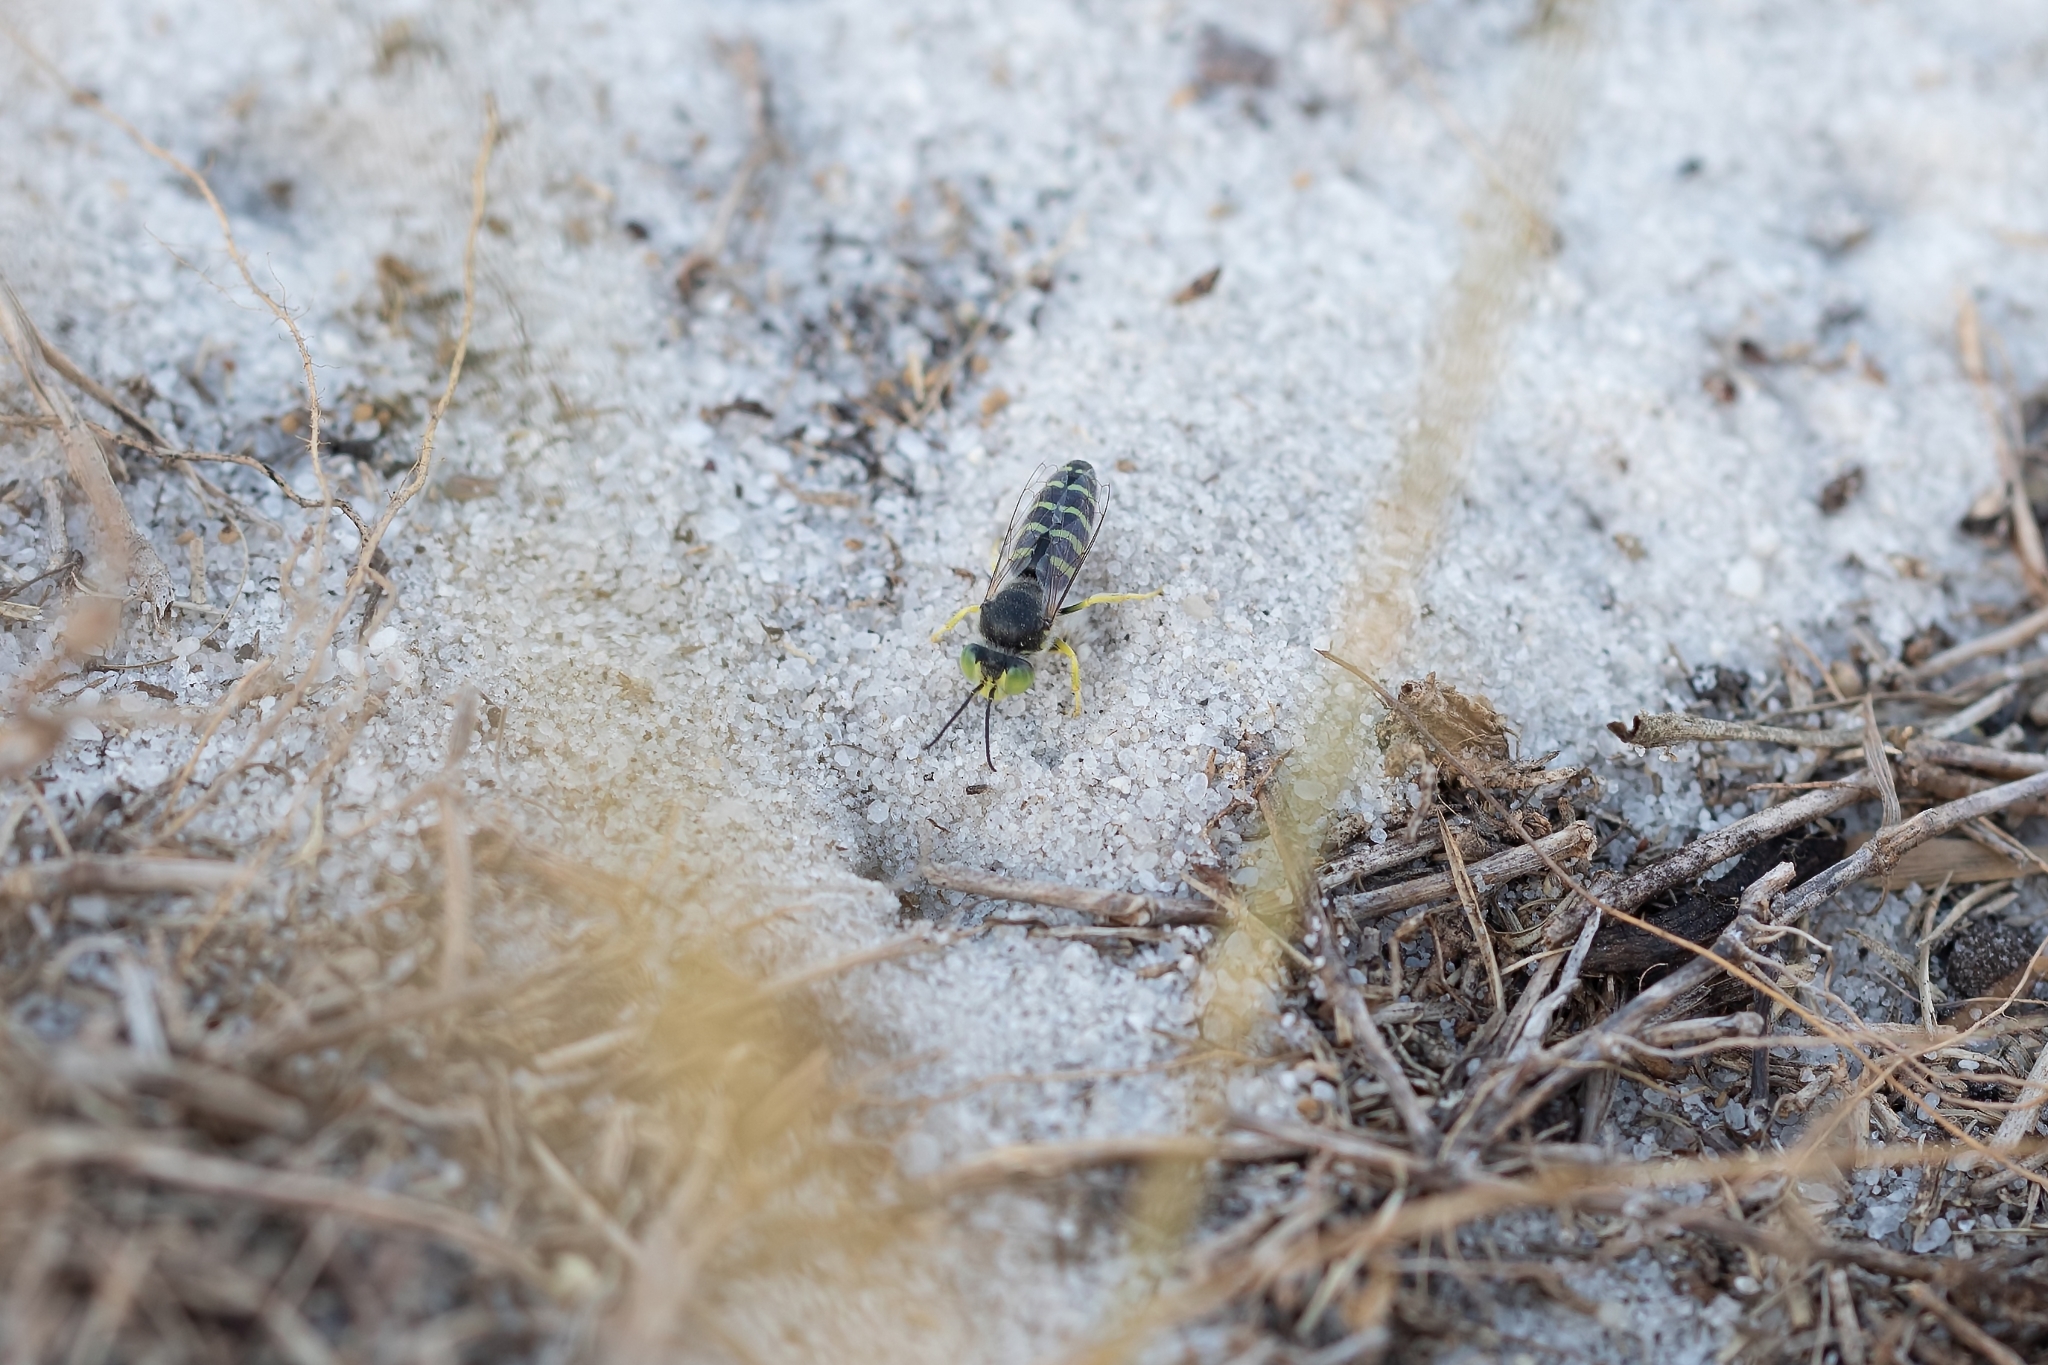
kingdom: Animalia
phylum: Arthropoda
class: Insecta
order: Hymenoptera
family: Crabronidae
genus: Bembix
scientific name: Bembix americana
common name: American sand wasp
